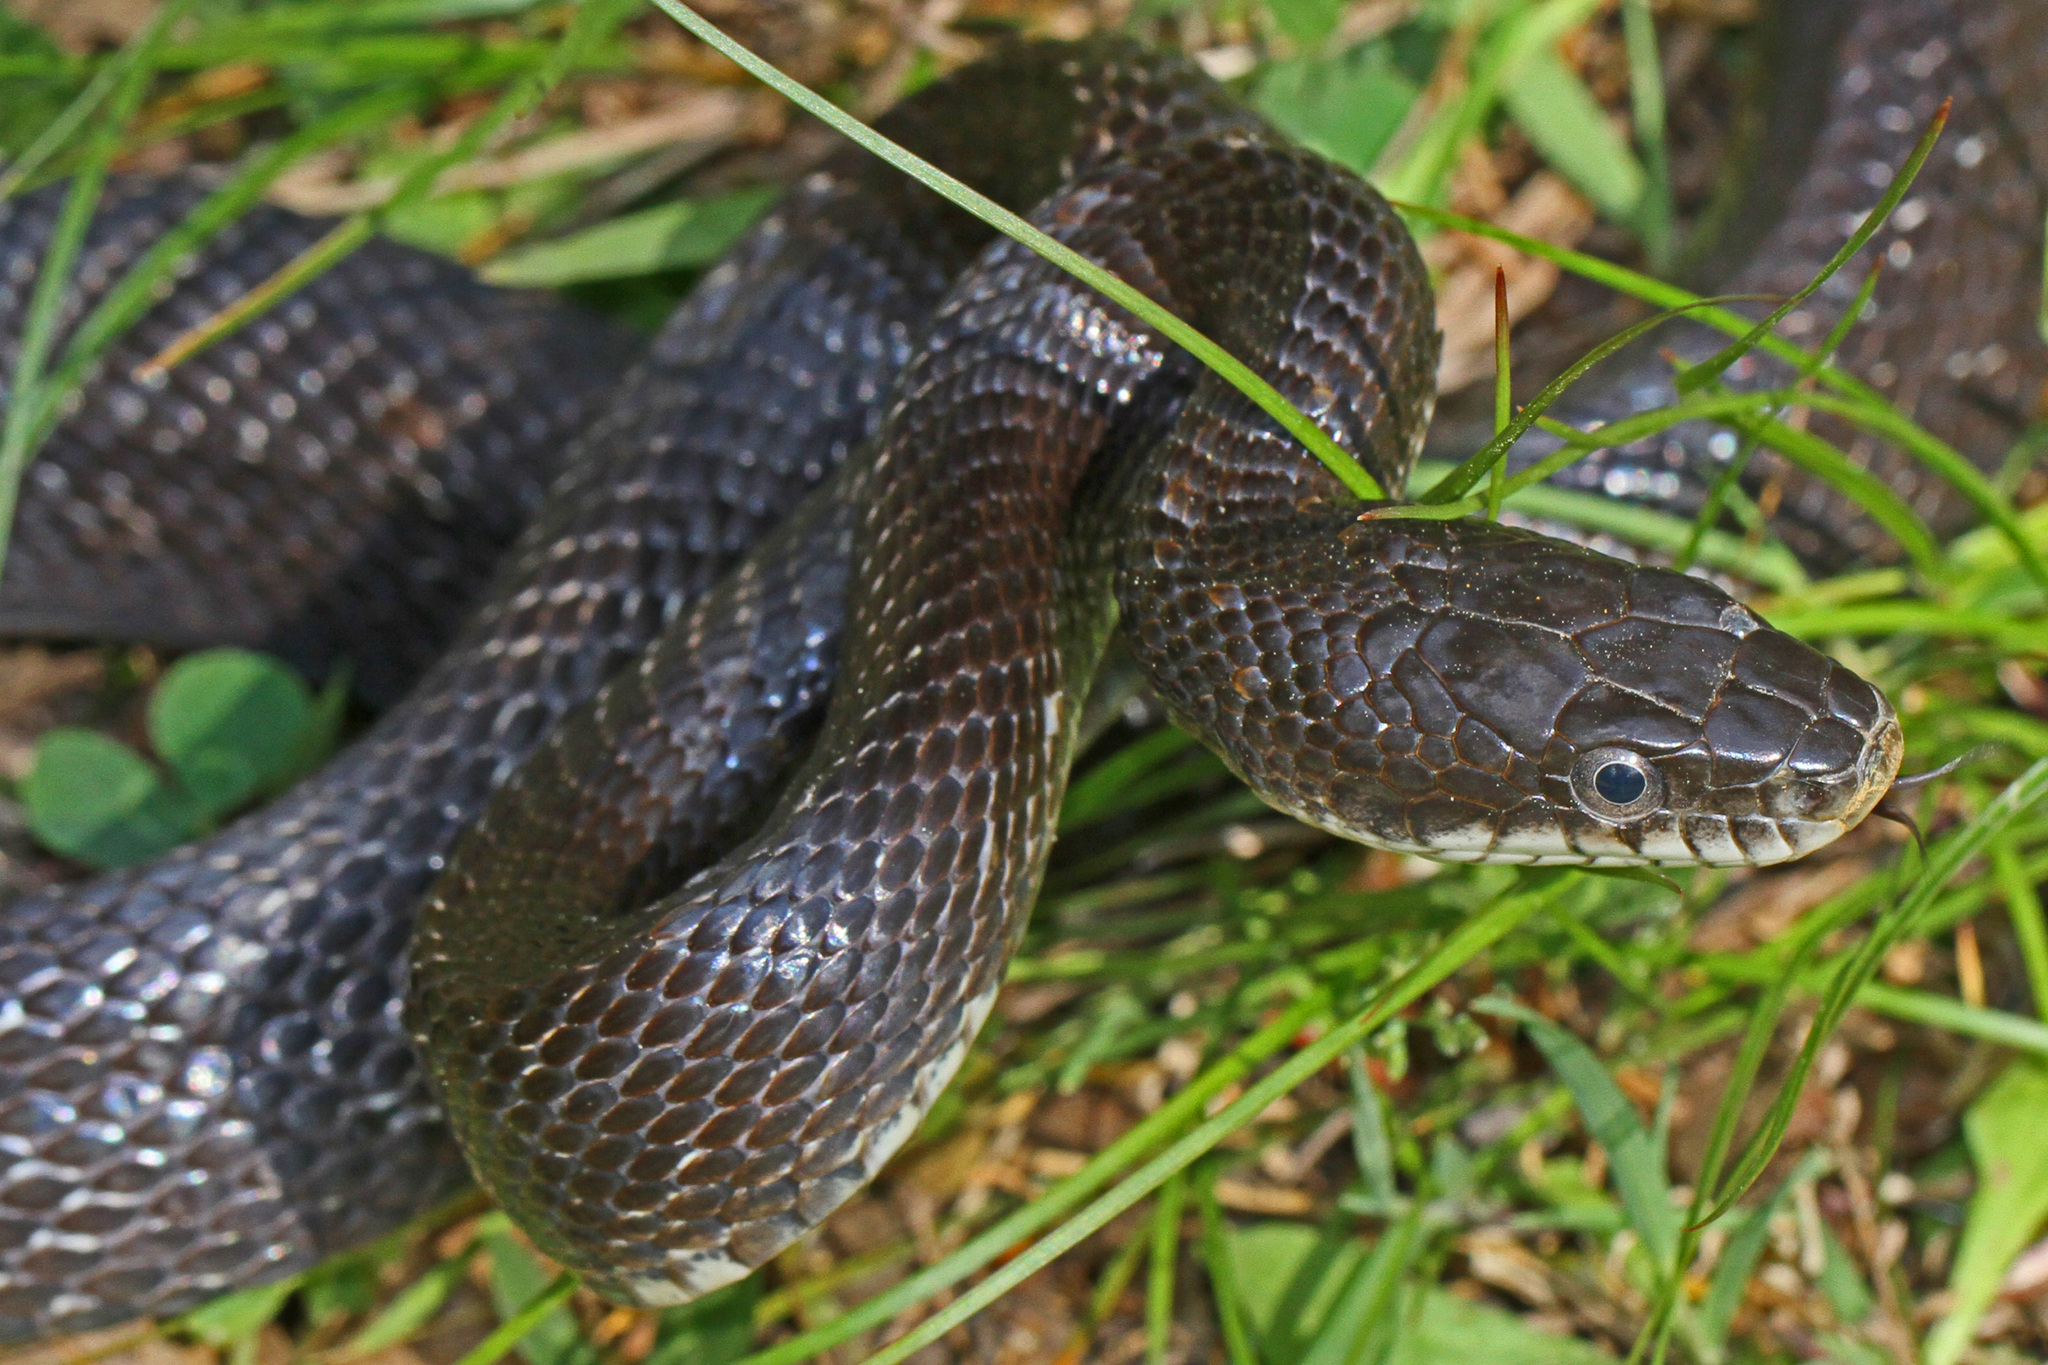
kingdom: Animalia
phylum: Chordata
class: Squamata
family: Colubridae
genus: Pantherophis
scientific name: Pantherophis alleghaniensis
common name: Eastern rat snake
